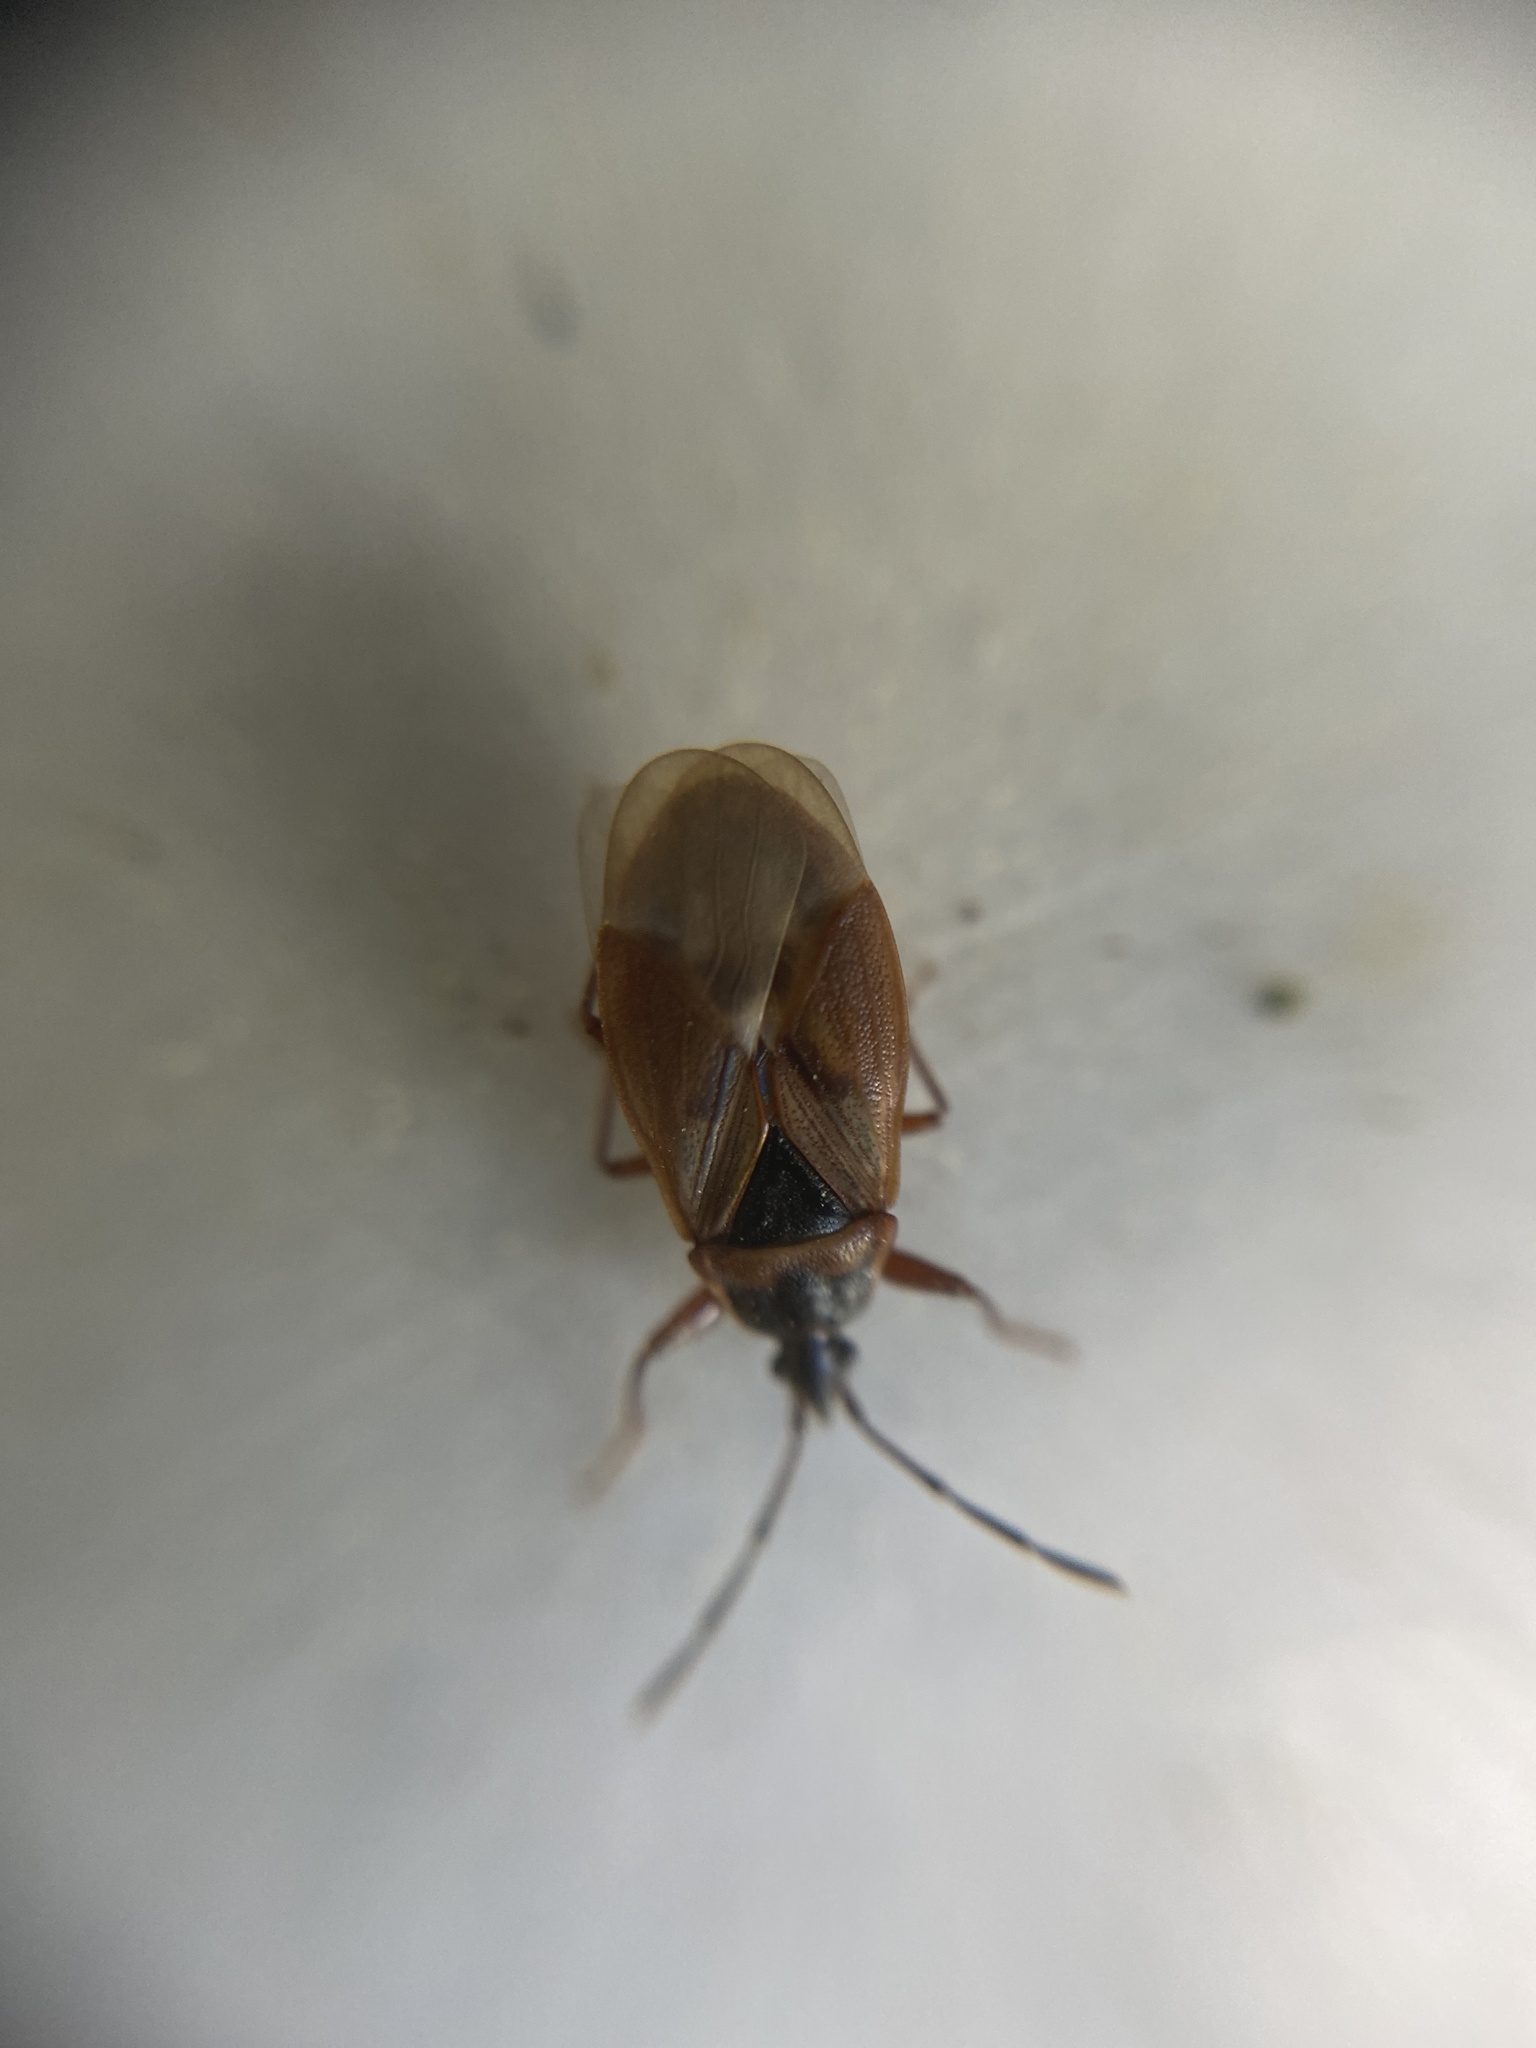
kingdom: Animalia
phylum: Arthropoda
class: Insecta
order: Hemiptera
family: Rhyparochromidae
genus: Gastrodes
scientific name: Gastrodes abietum
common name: Spruce cone bug
